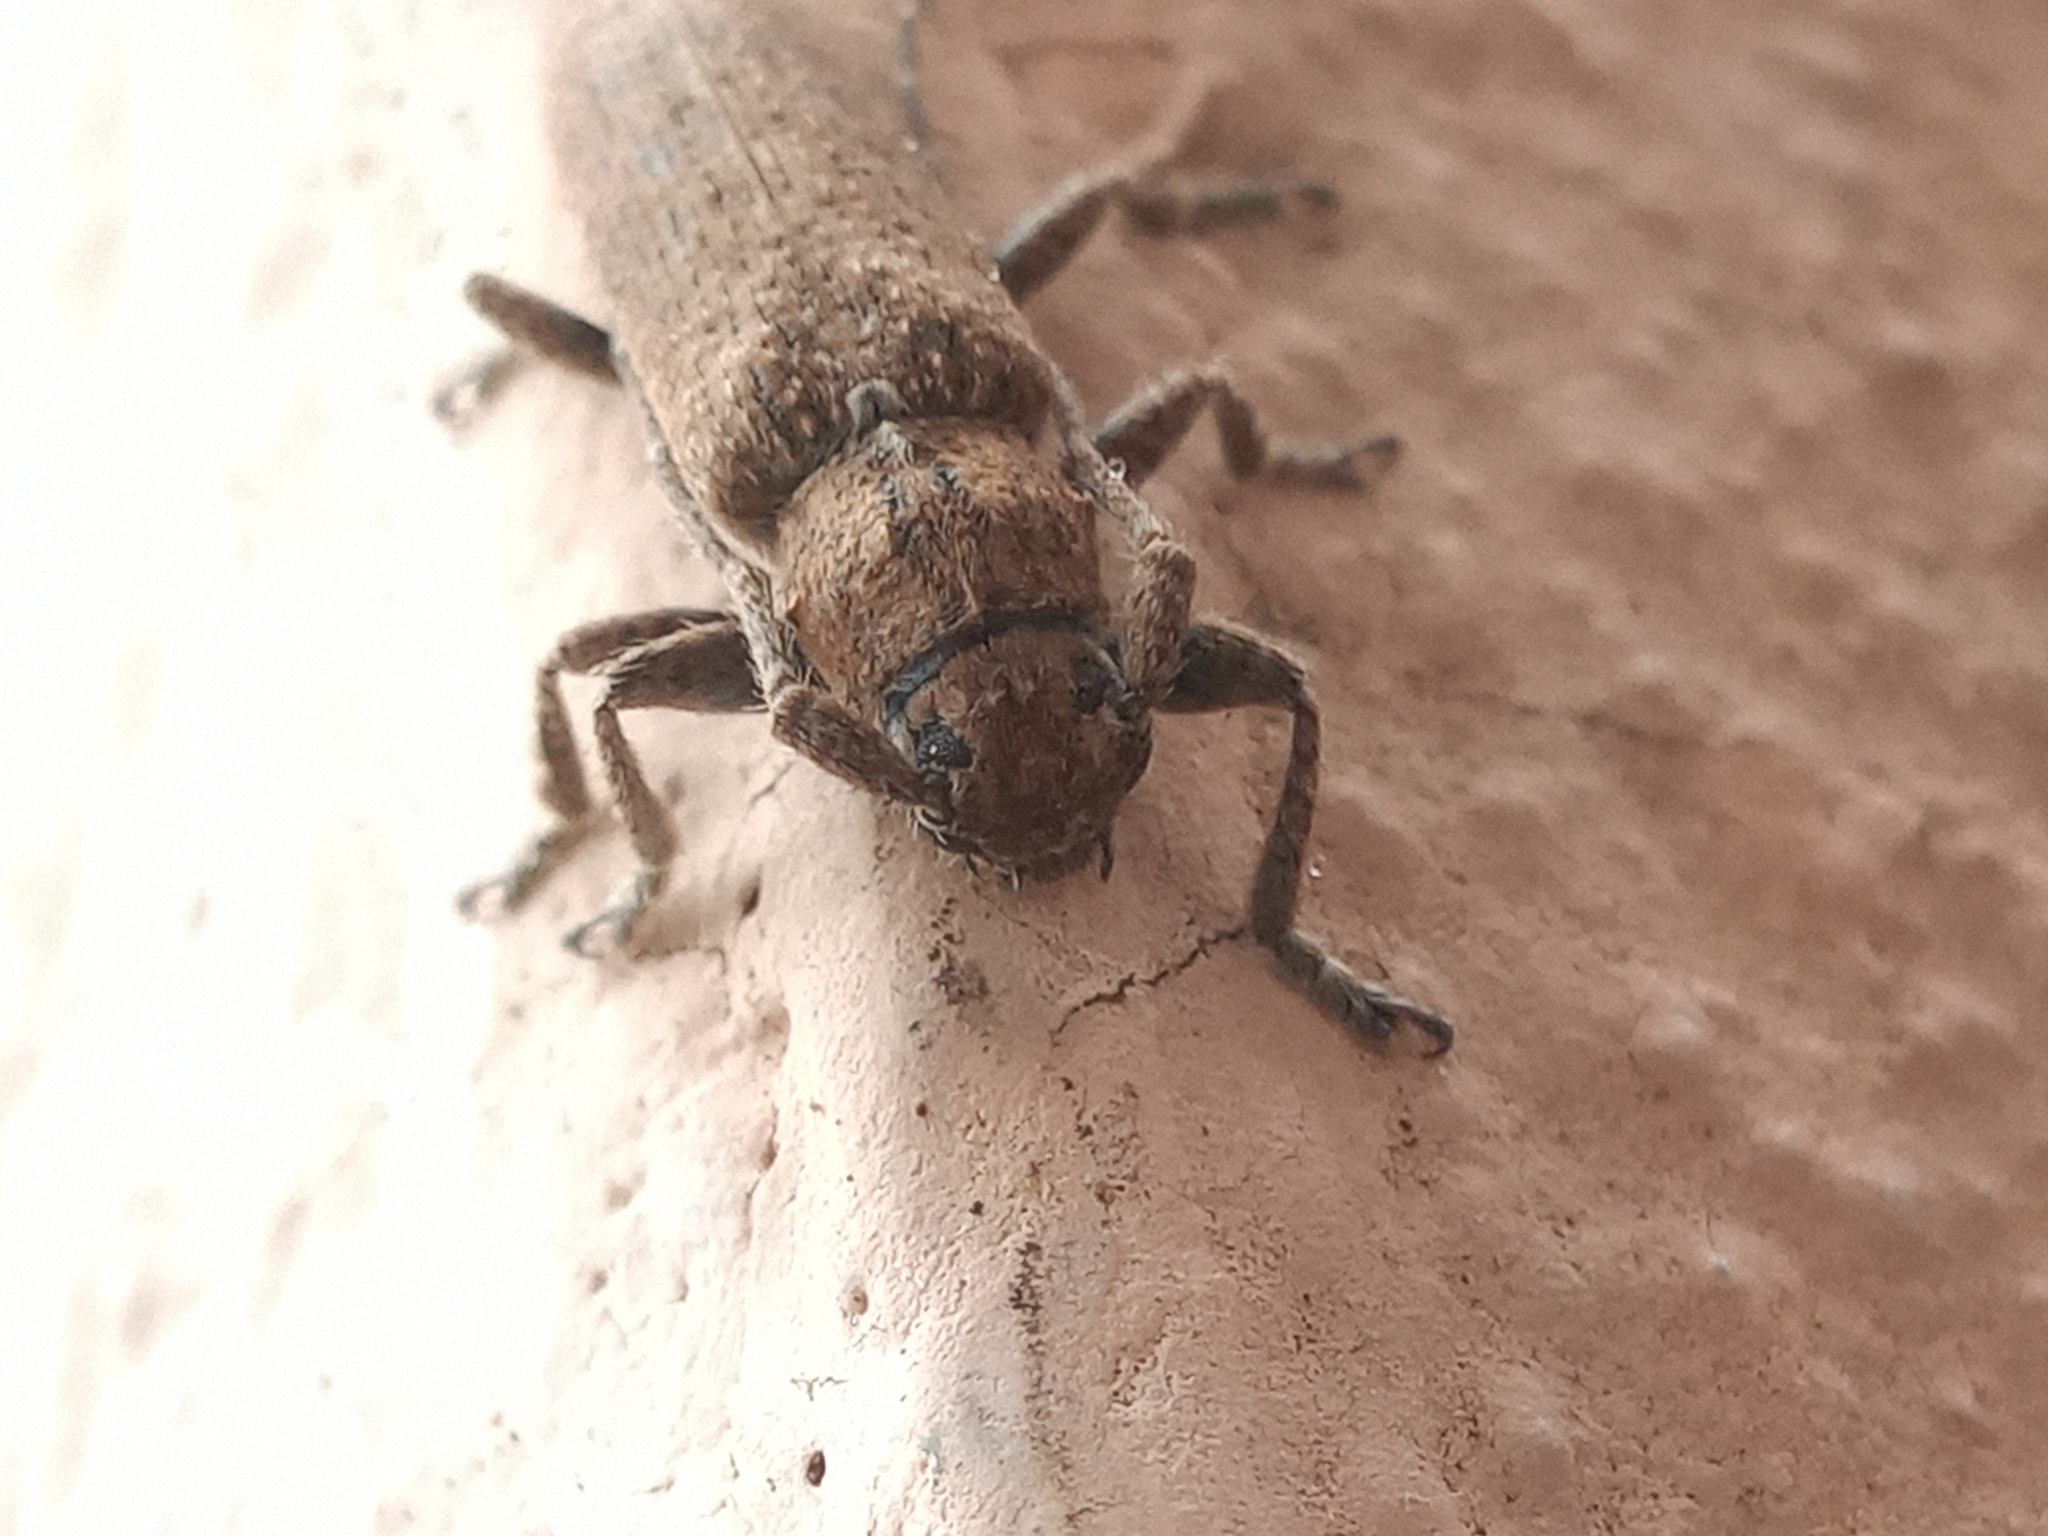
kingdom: Animalia
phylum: Arthropoda
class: Insecta
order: Coleoptera
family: Cerambycidae
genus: Ataxia
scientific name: Ataxia crypta
